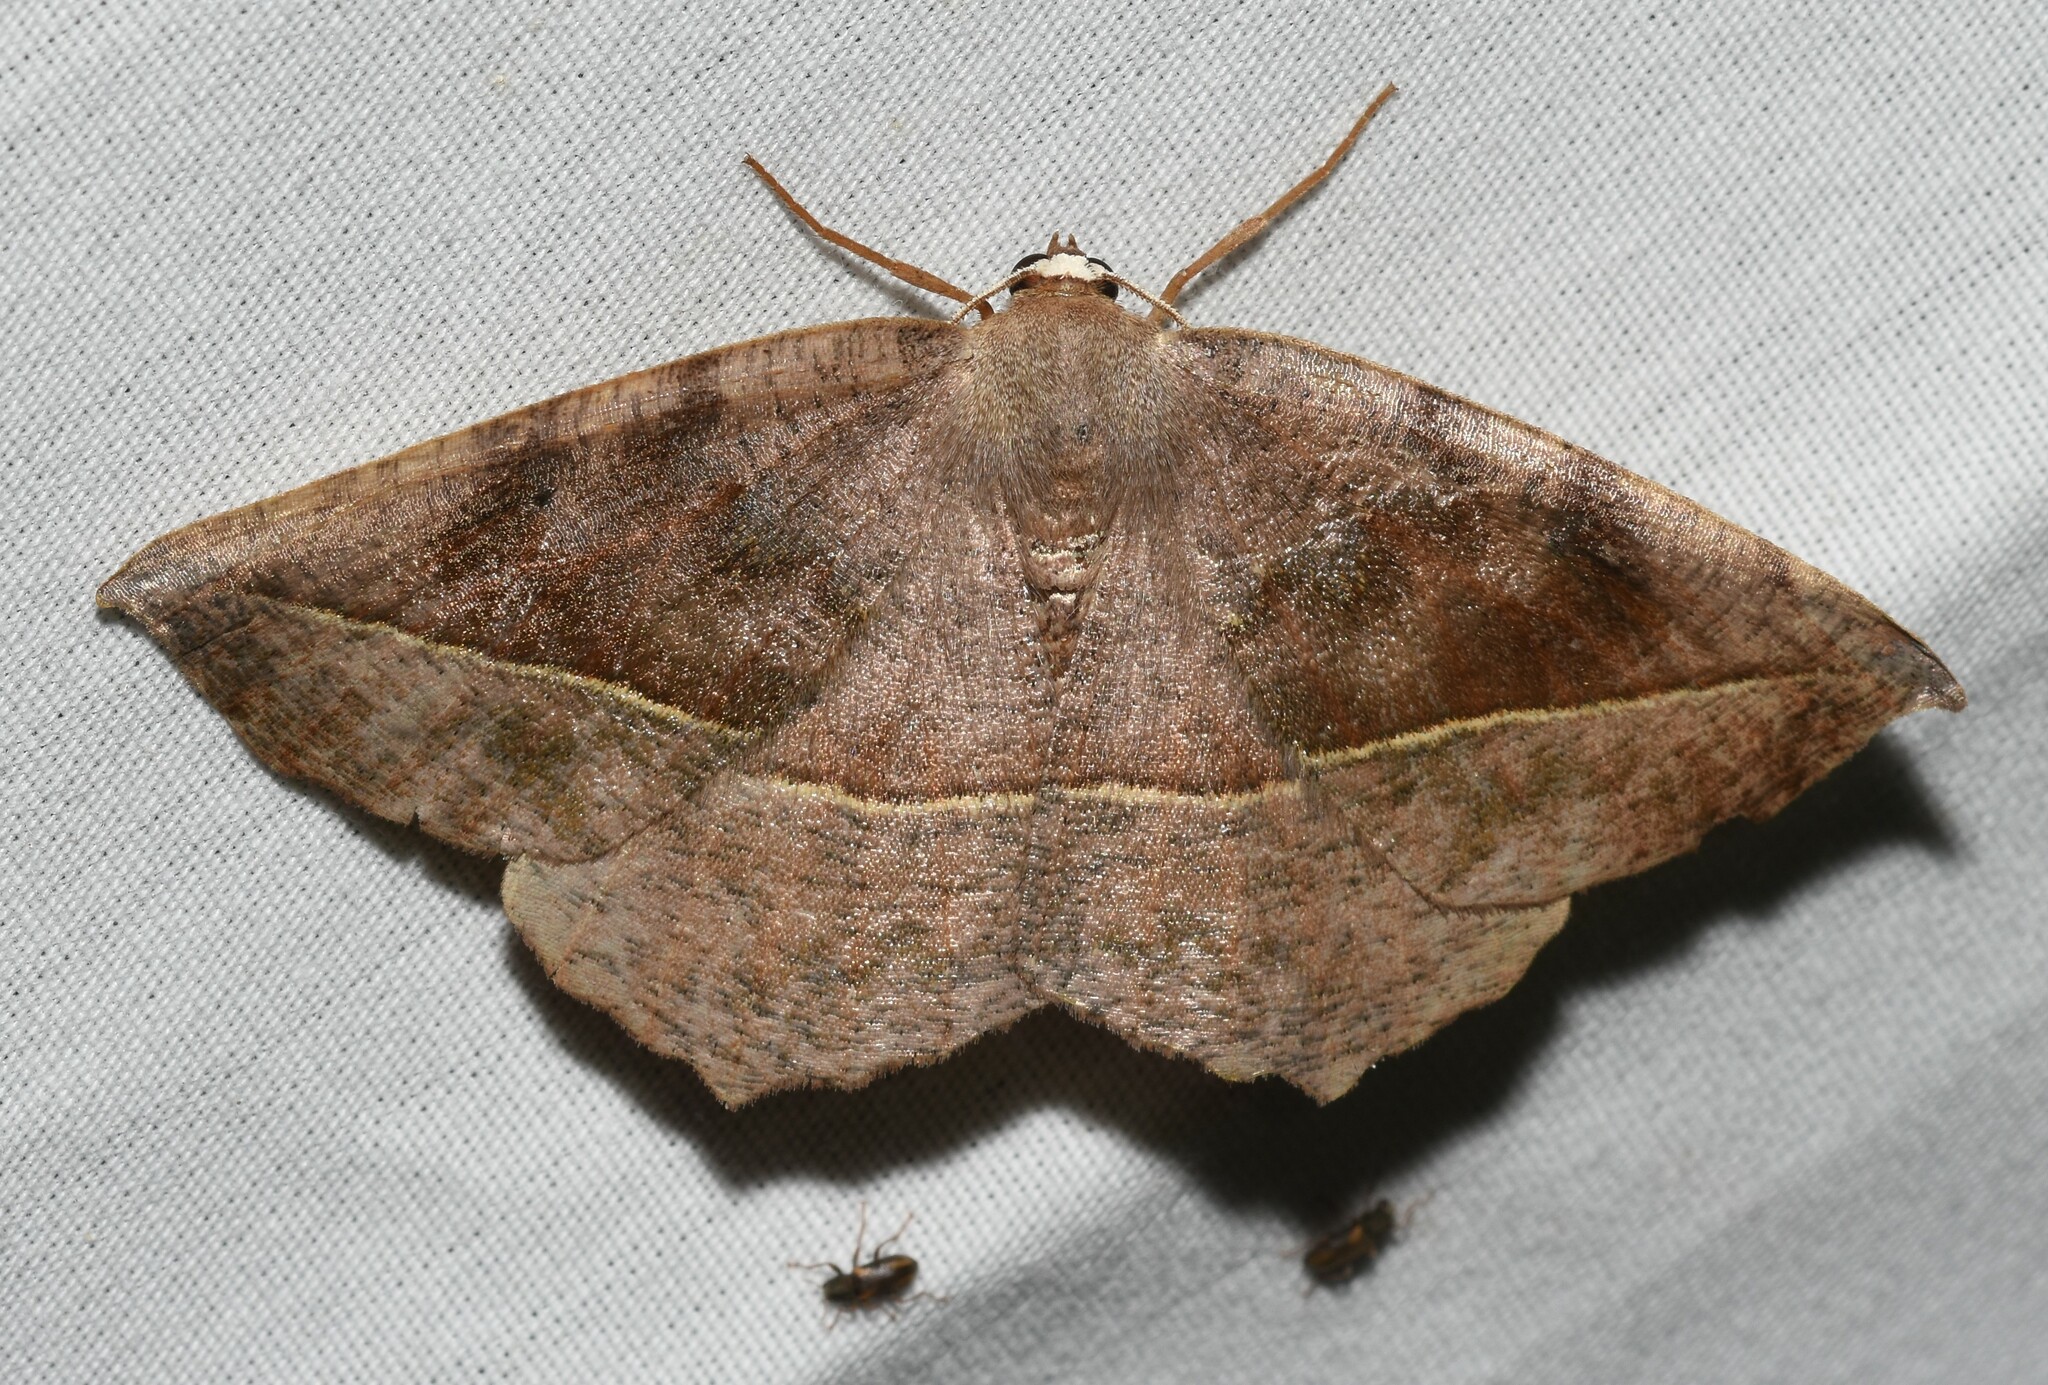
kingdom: Animalia
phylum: Arthropoda
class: Insecta
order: Lepidoptera
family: Geometridae
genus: Eutrapela
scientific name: Eutrapela clemataria
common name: Curved-toothed geometer
